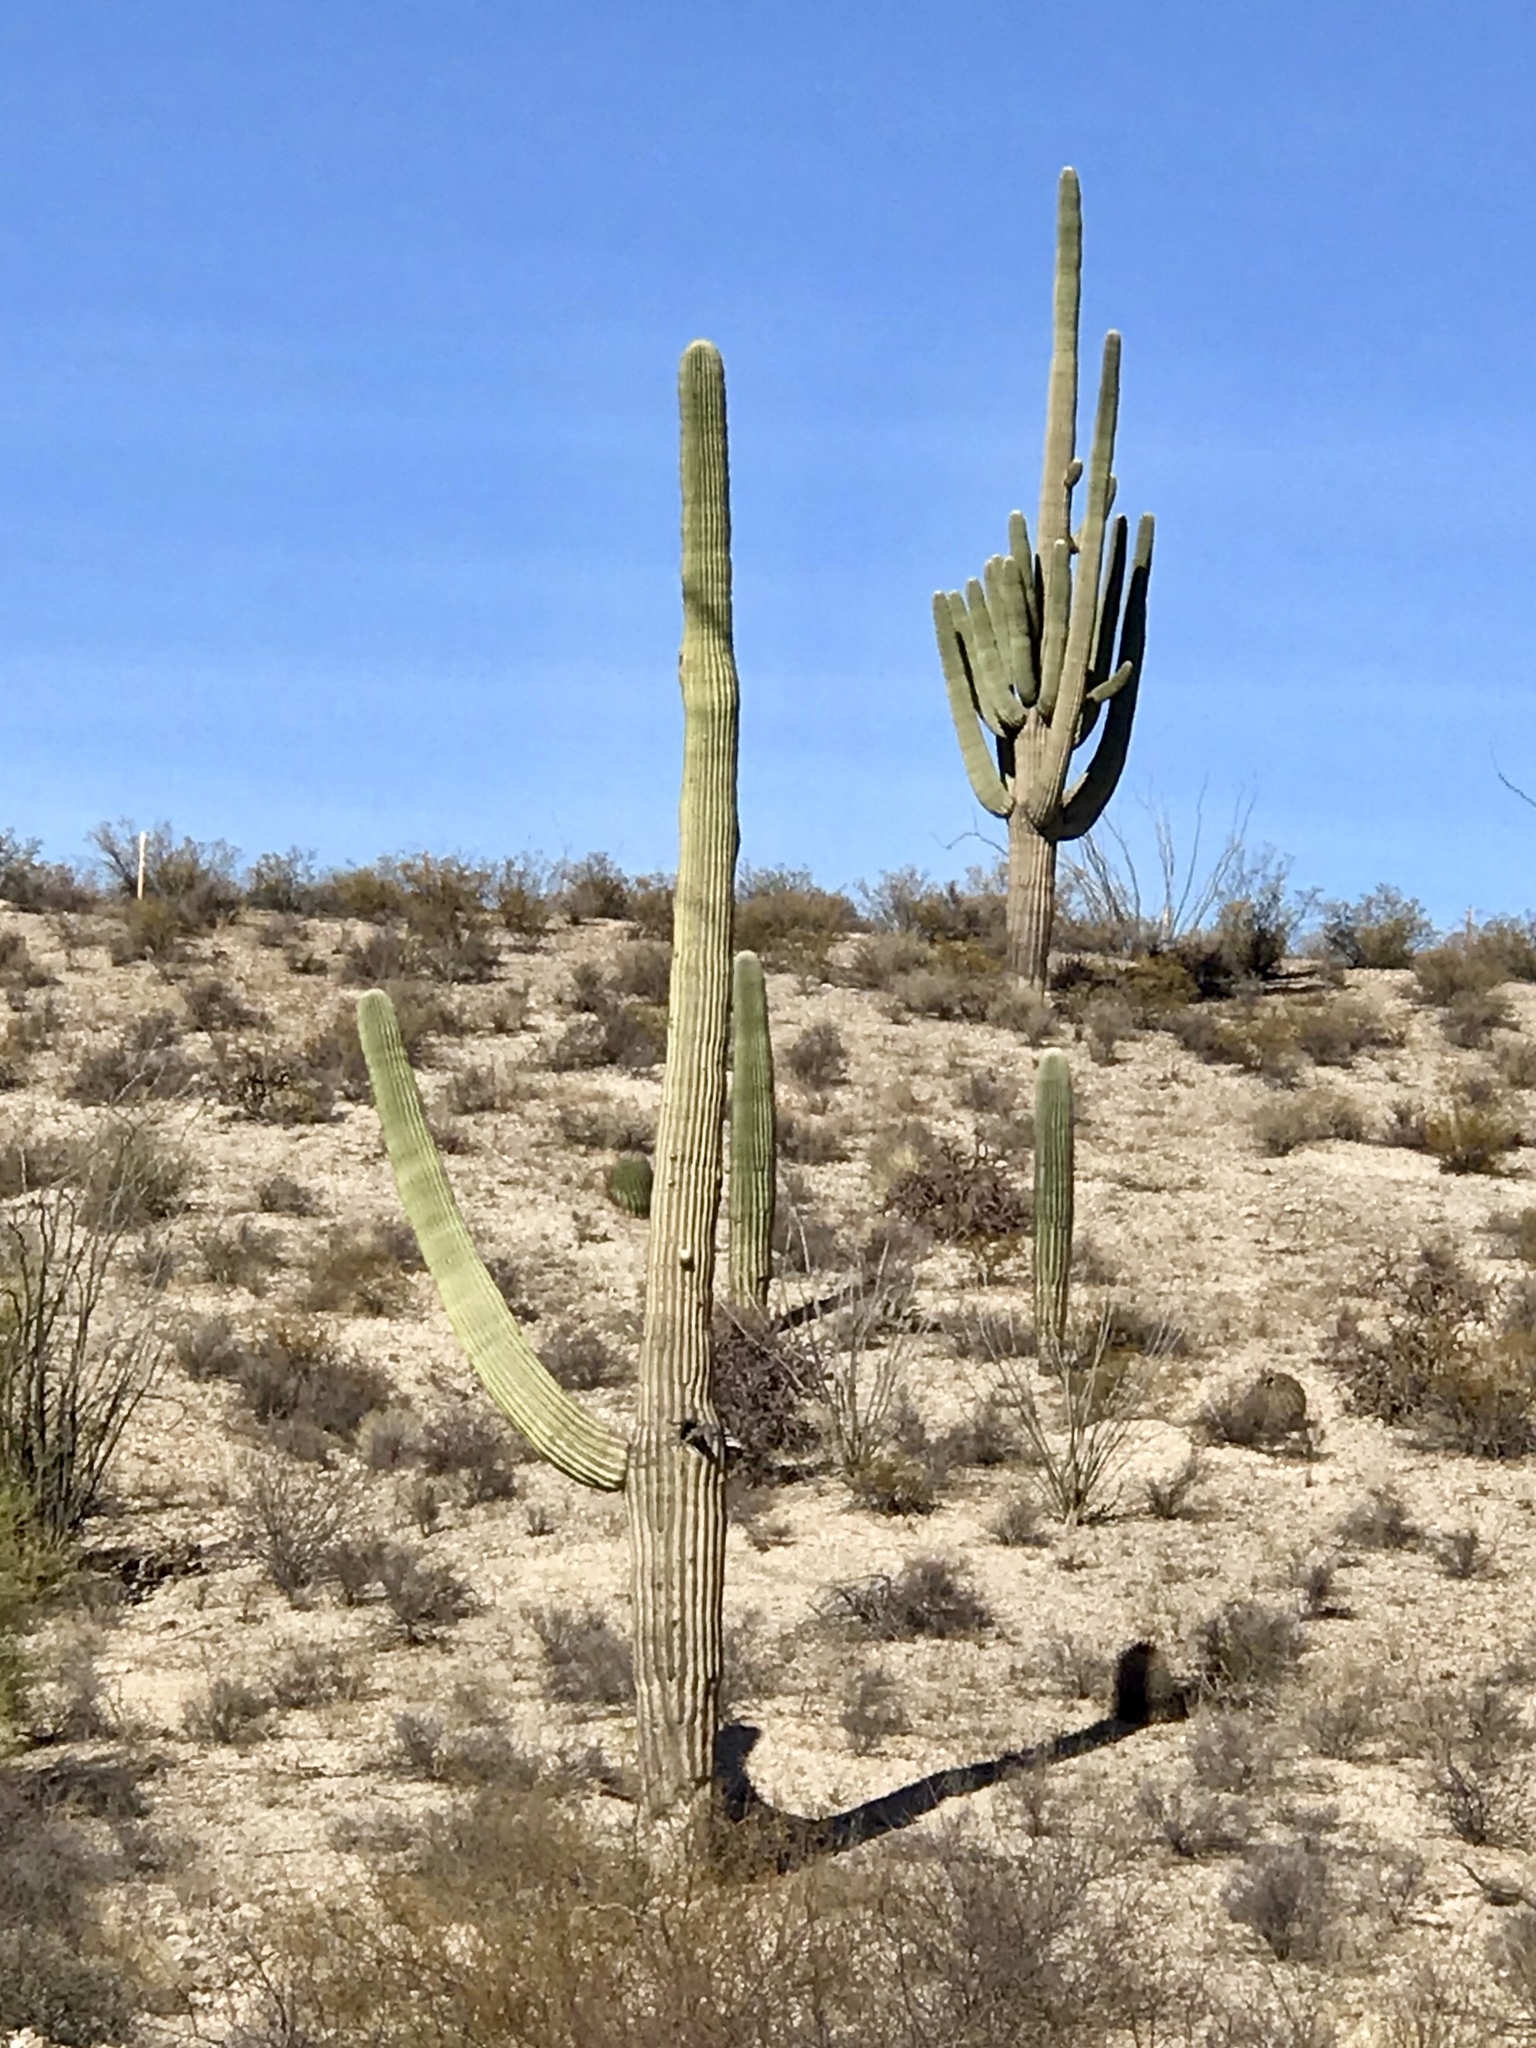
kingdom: Plantae
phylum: Tracheophyta
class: Magnoliopsida
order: Caryophyllales
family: Cactaceae
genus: Carnegiea
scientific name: Carnegiea gigantea
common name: Saguaro
